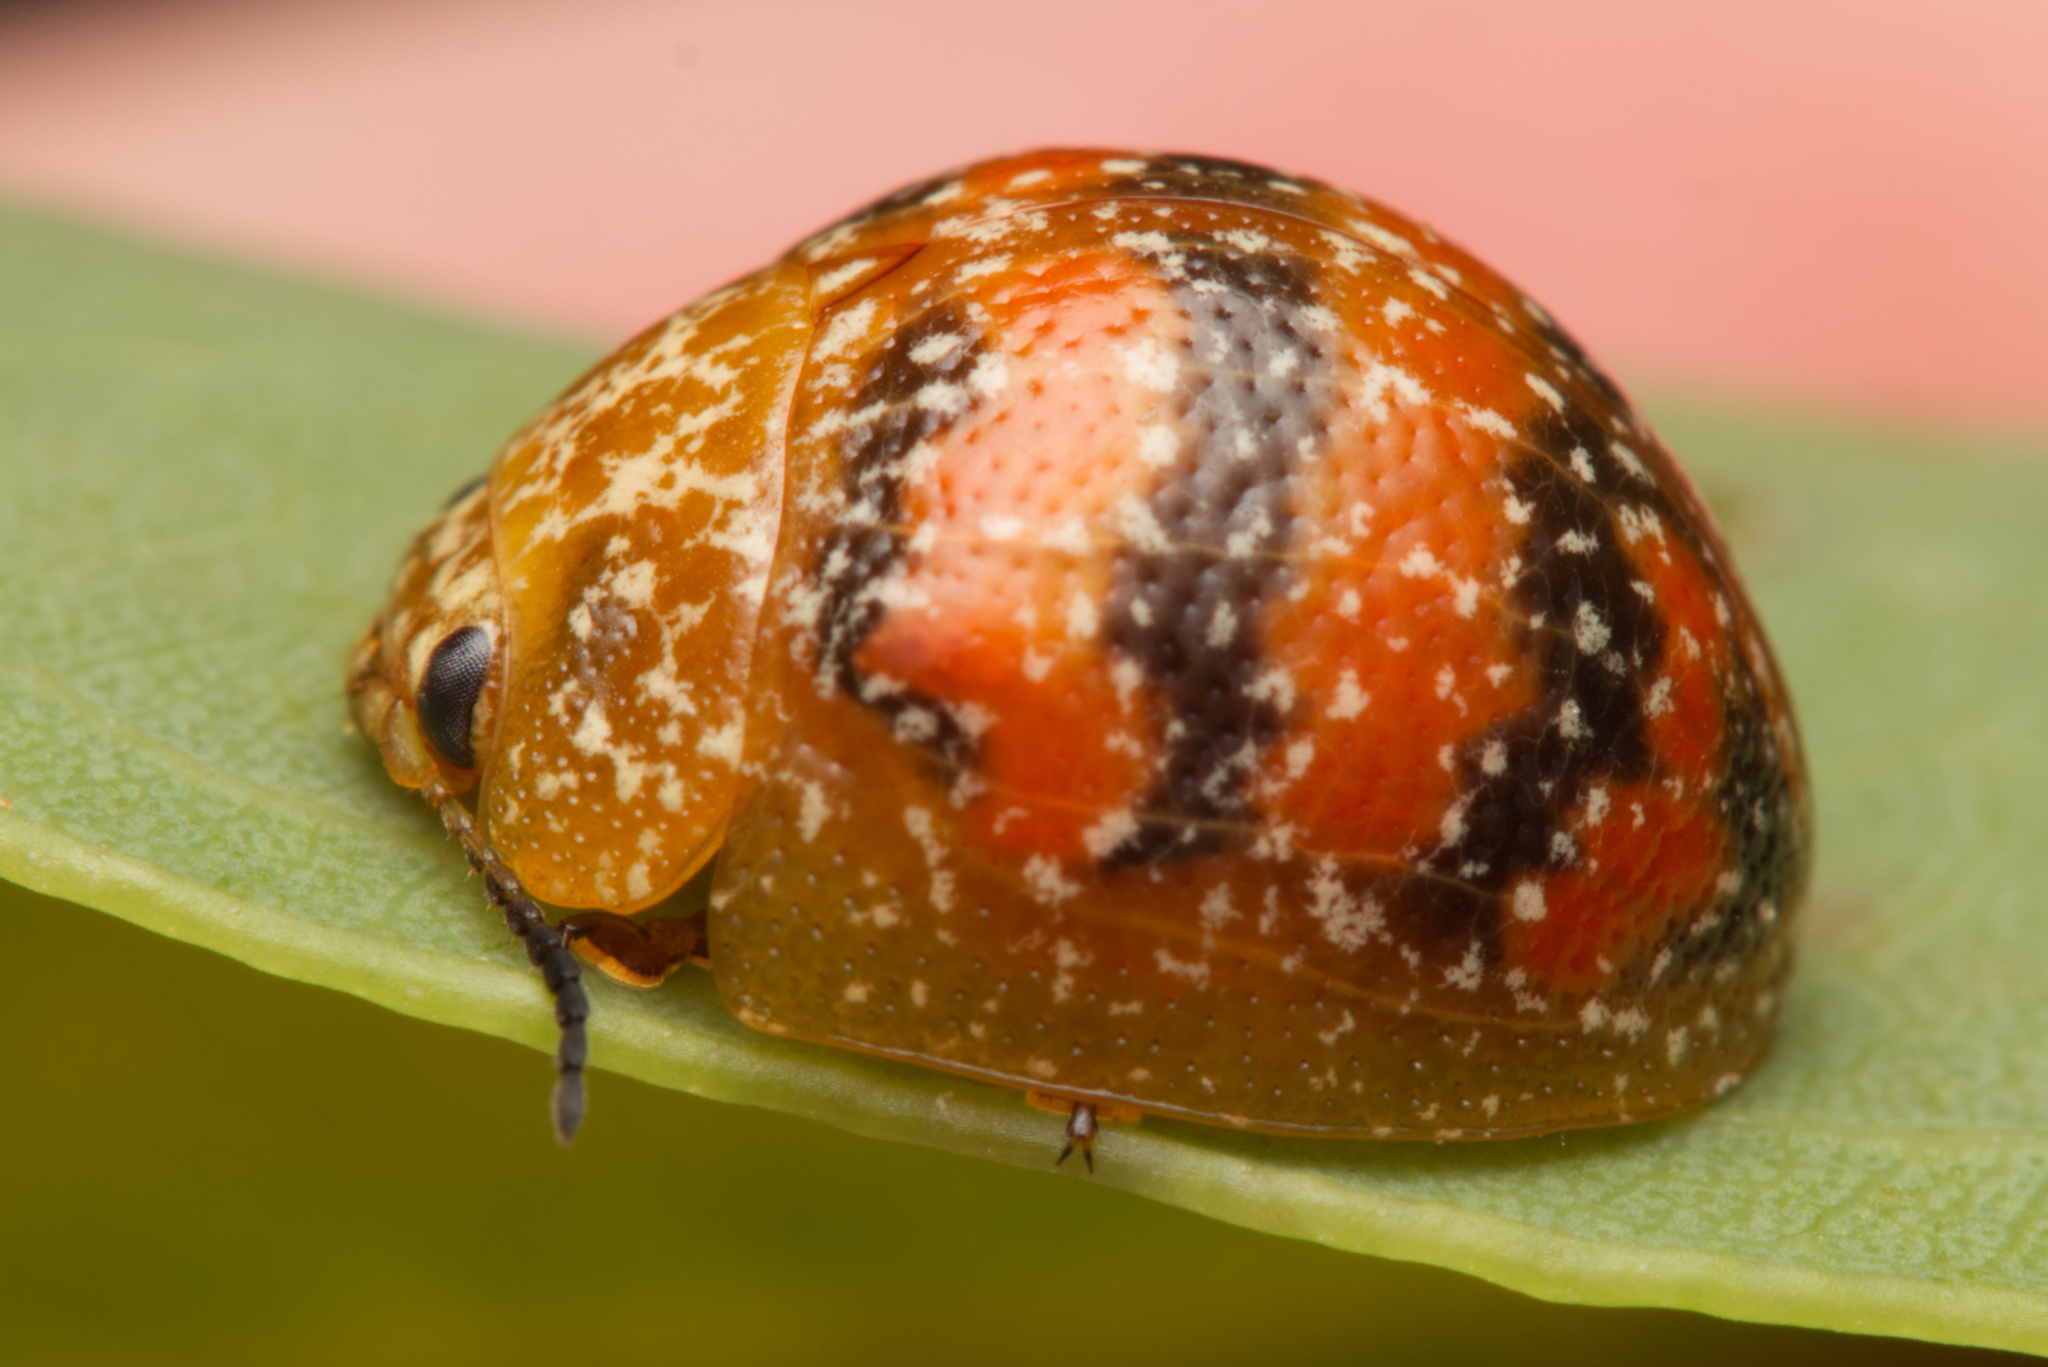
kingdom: Animalia
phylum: Arthropoda
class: Insecta
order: Coleoptera
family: Chrysomelidae
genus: Paropsis
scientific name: Paropsis obsoleta
